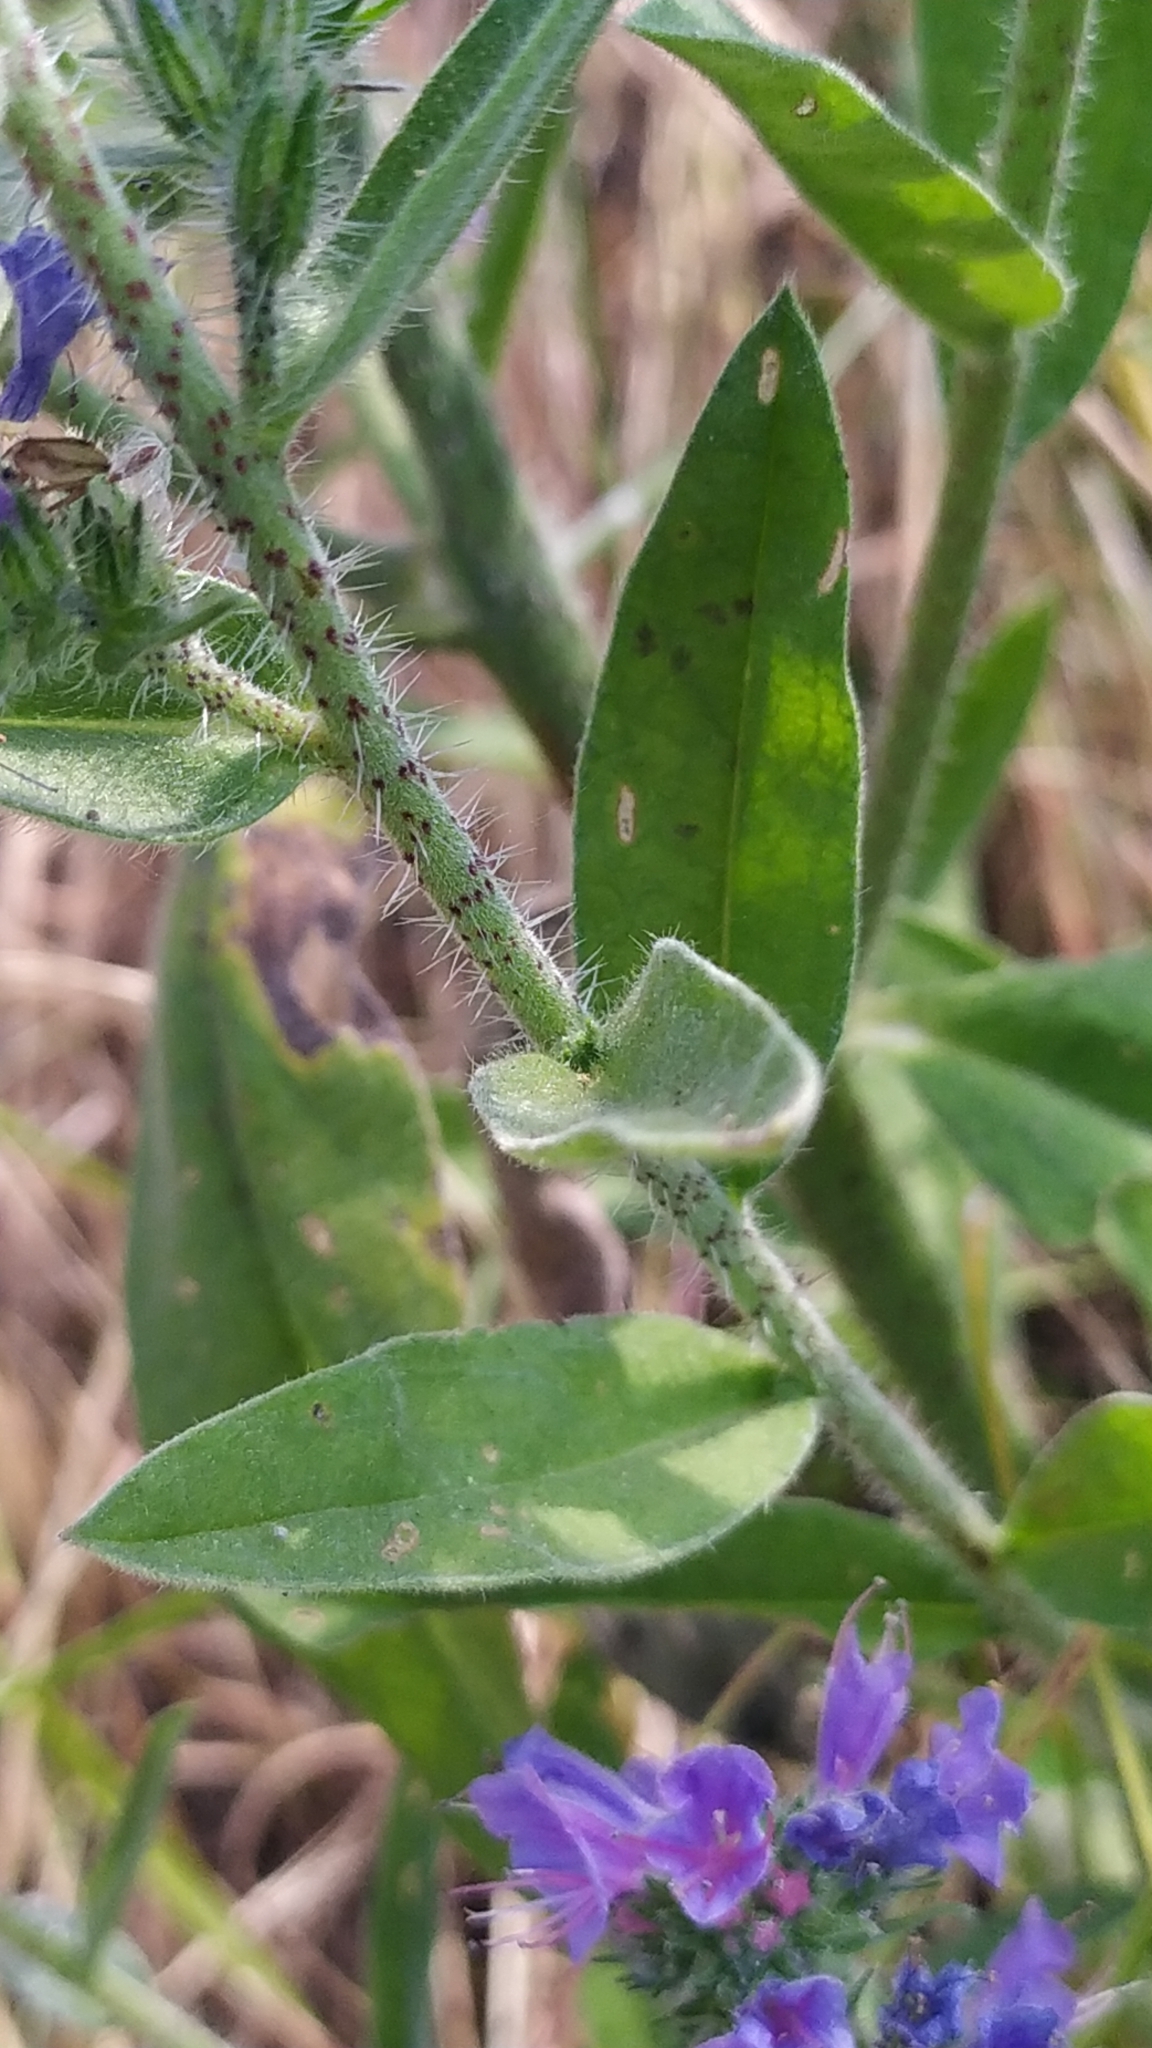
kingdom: Plantae
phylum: Tracheophyta
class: Magnoliopsida
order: Boraginales
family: Boraginaceae
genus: Echium
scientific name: Echium vulgare
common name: Common viper's bugloss
